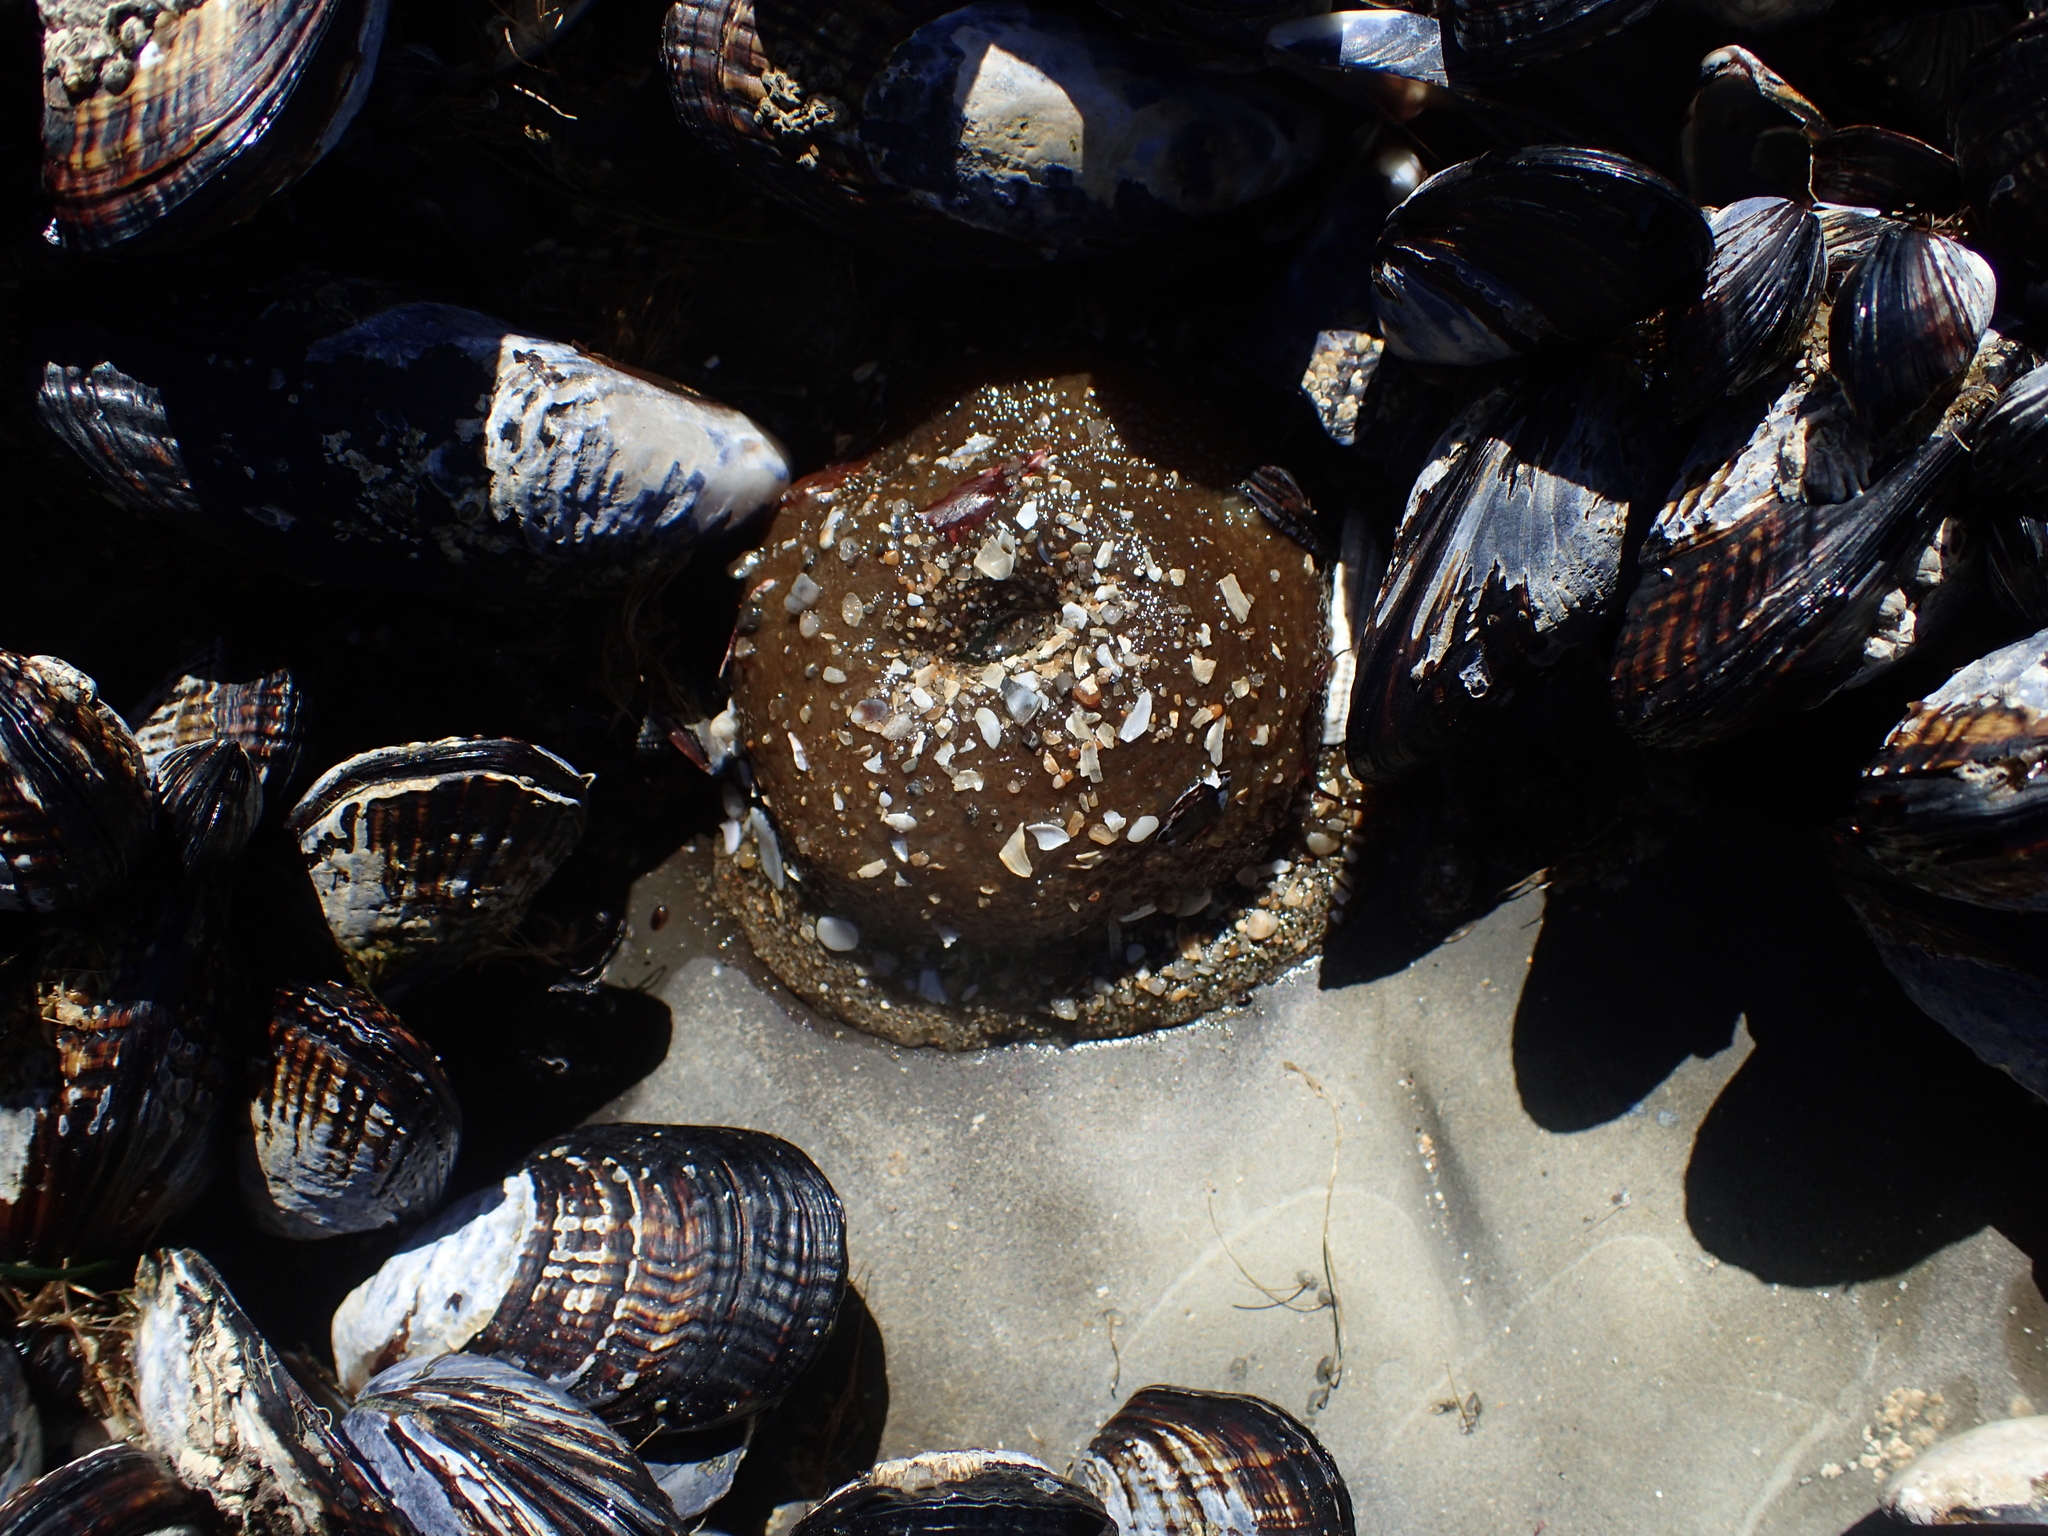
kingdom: Animalia
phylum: Cnidaria
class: Anthozoa
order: Actiniaria
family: Actiniidae
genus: Anthopleura
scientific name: Anthopleura xanthogrammica
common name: Giant green anemone
